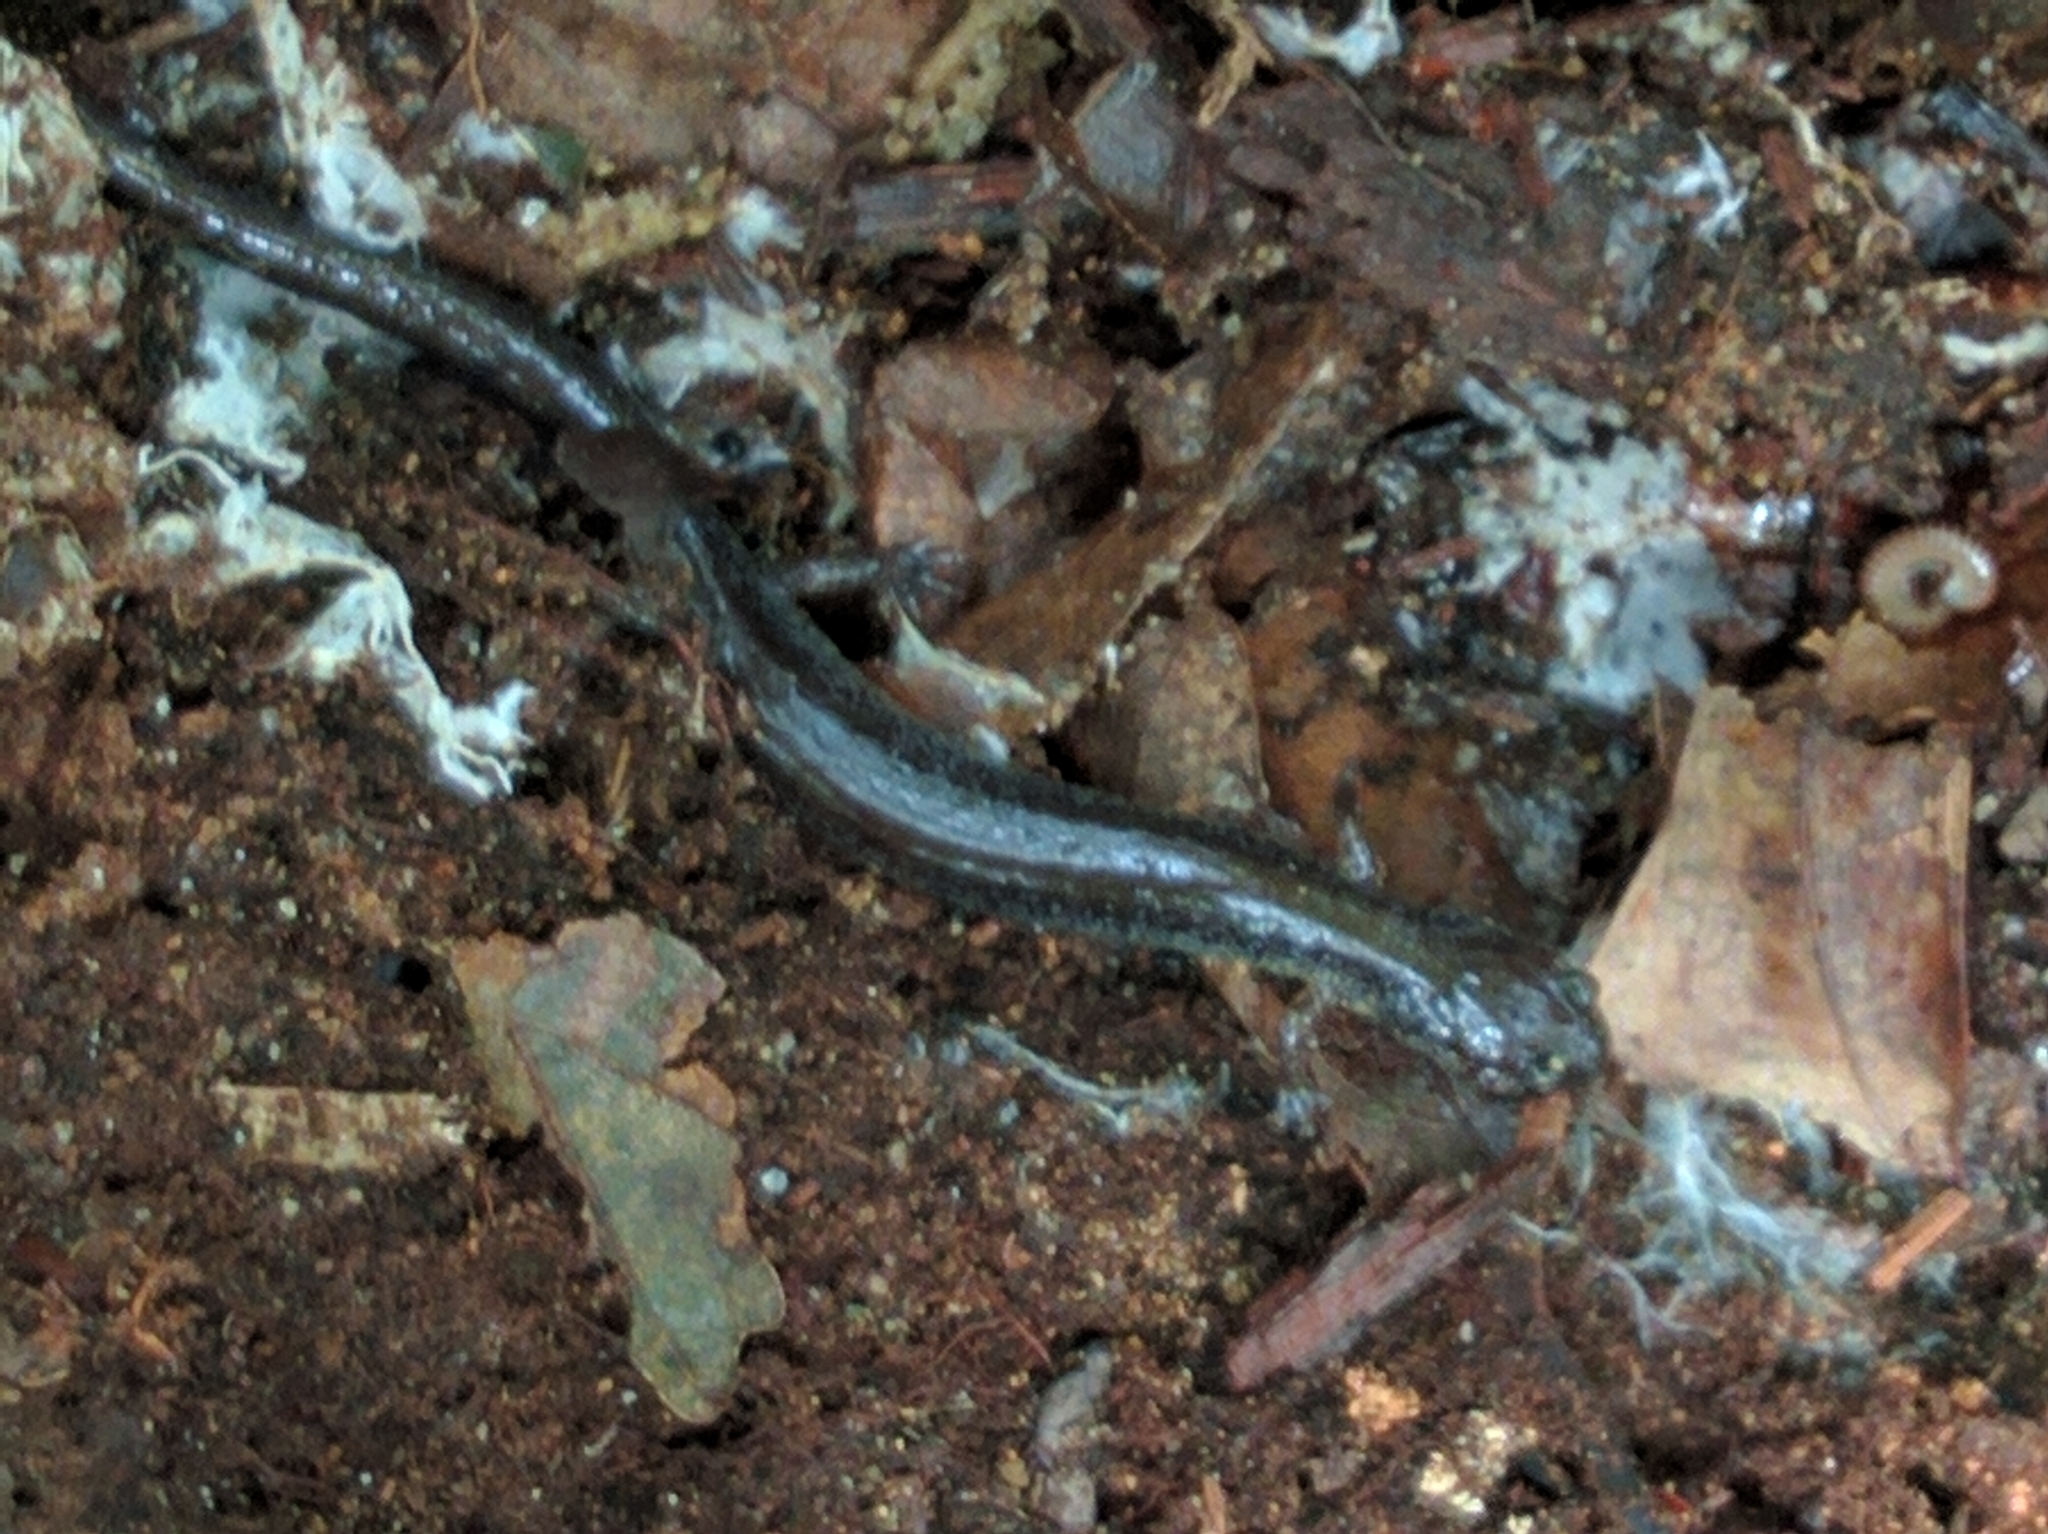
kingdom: Animalia
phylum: Chordata
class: Amphibia
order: Caudata
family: Plethodontidae
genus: Plethodon
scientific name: Plethodon cinereus
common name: Redback salamander
